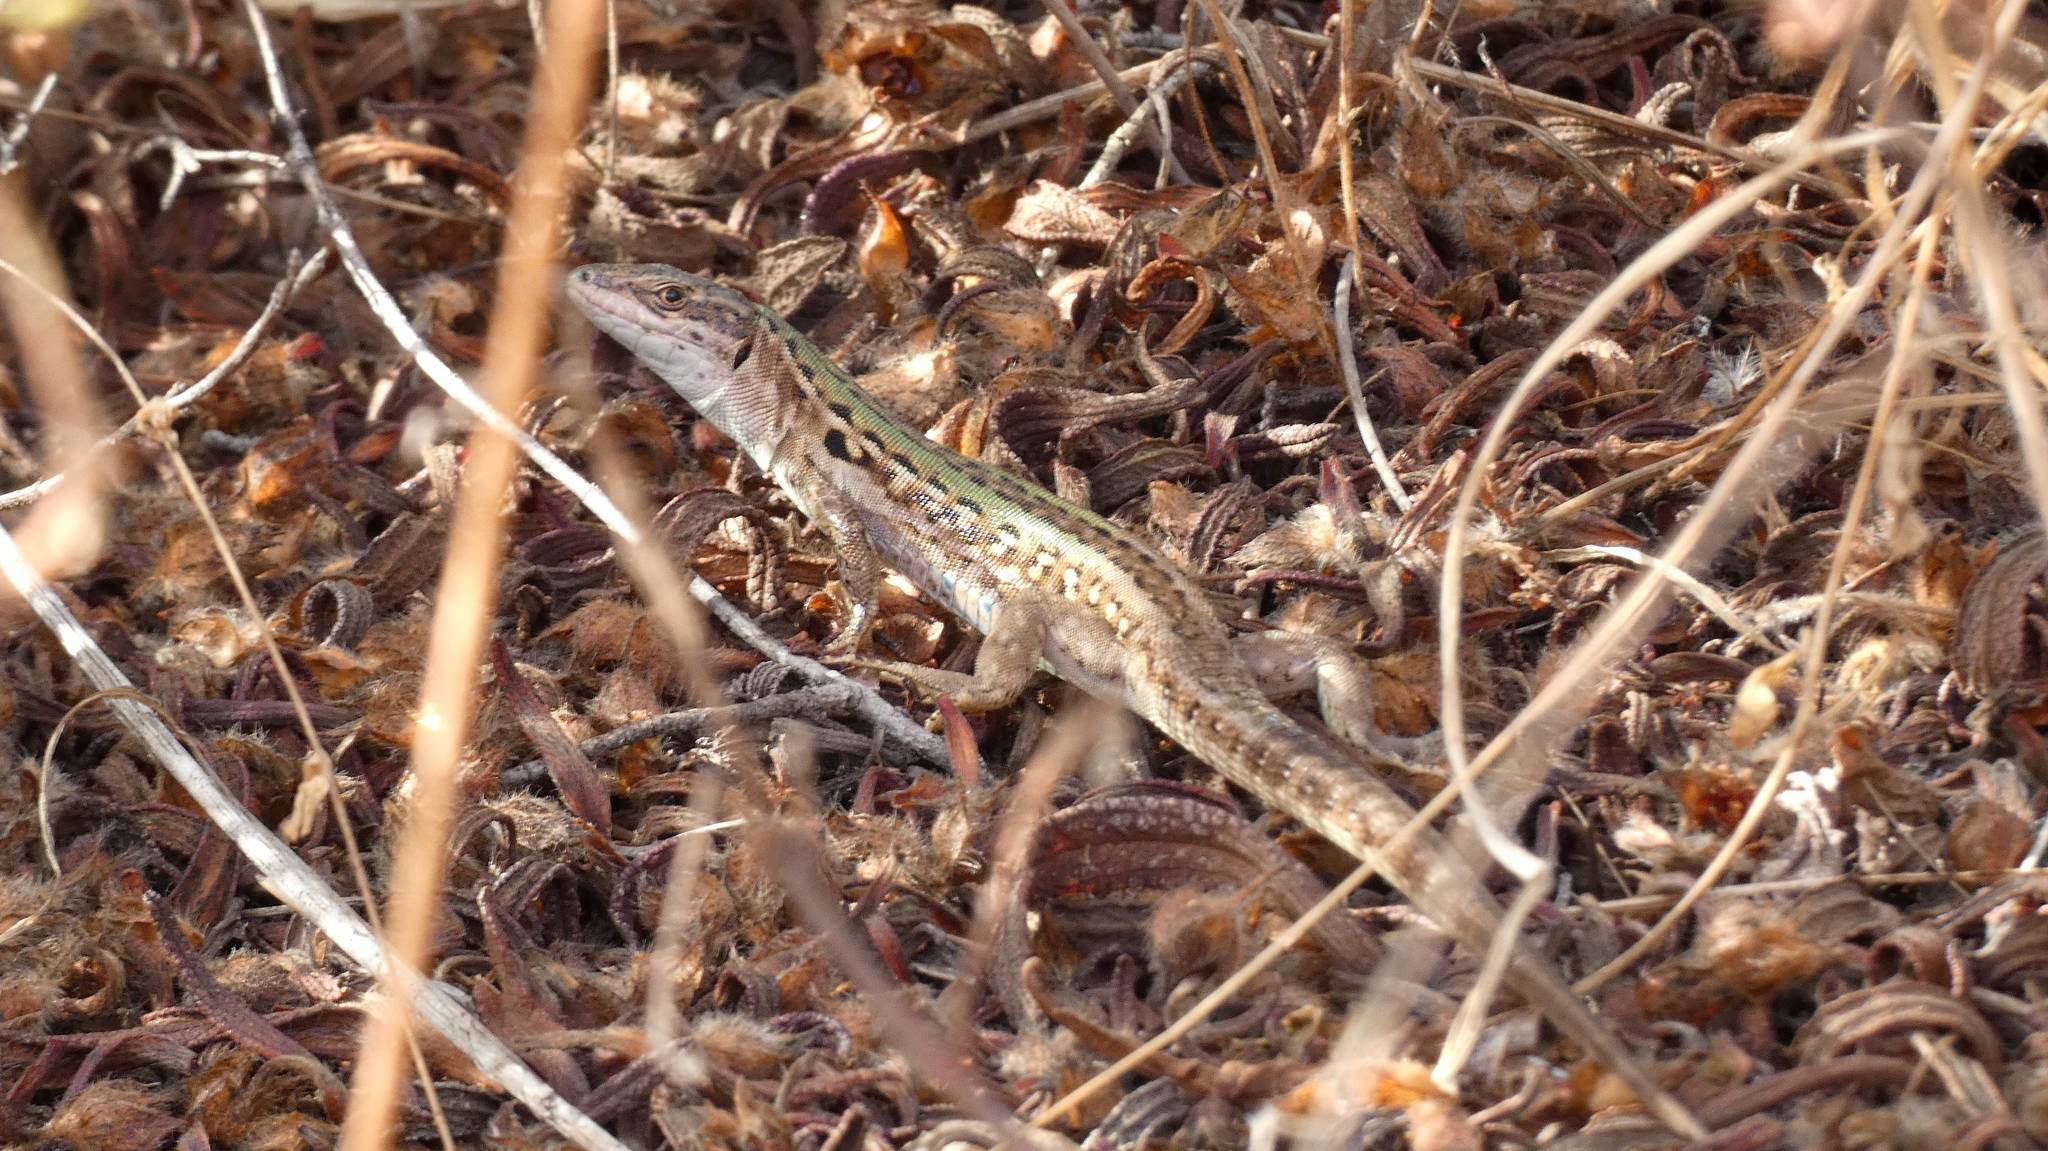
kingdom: Animalia
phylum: Chordata
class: Squamata
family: Lacertidae
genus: Podarcis
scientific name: Podarcis siculus
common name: Italian wall lizard
